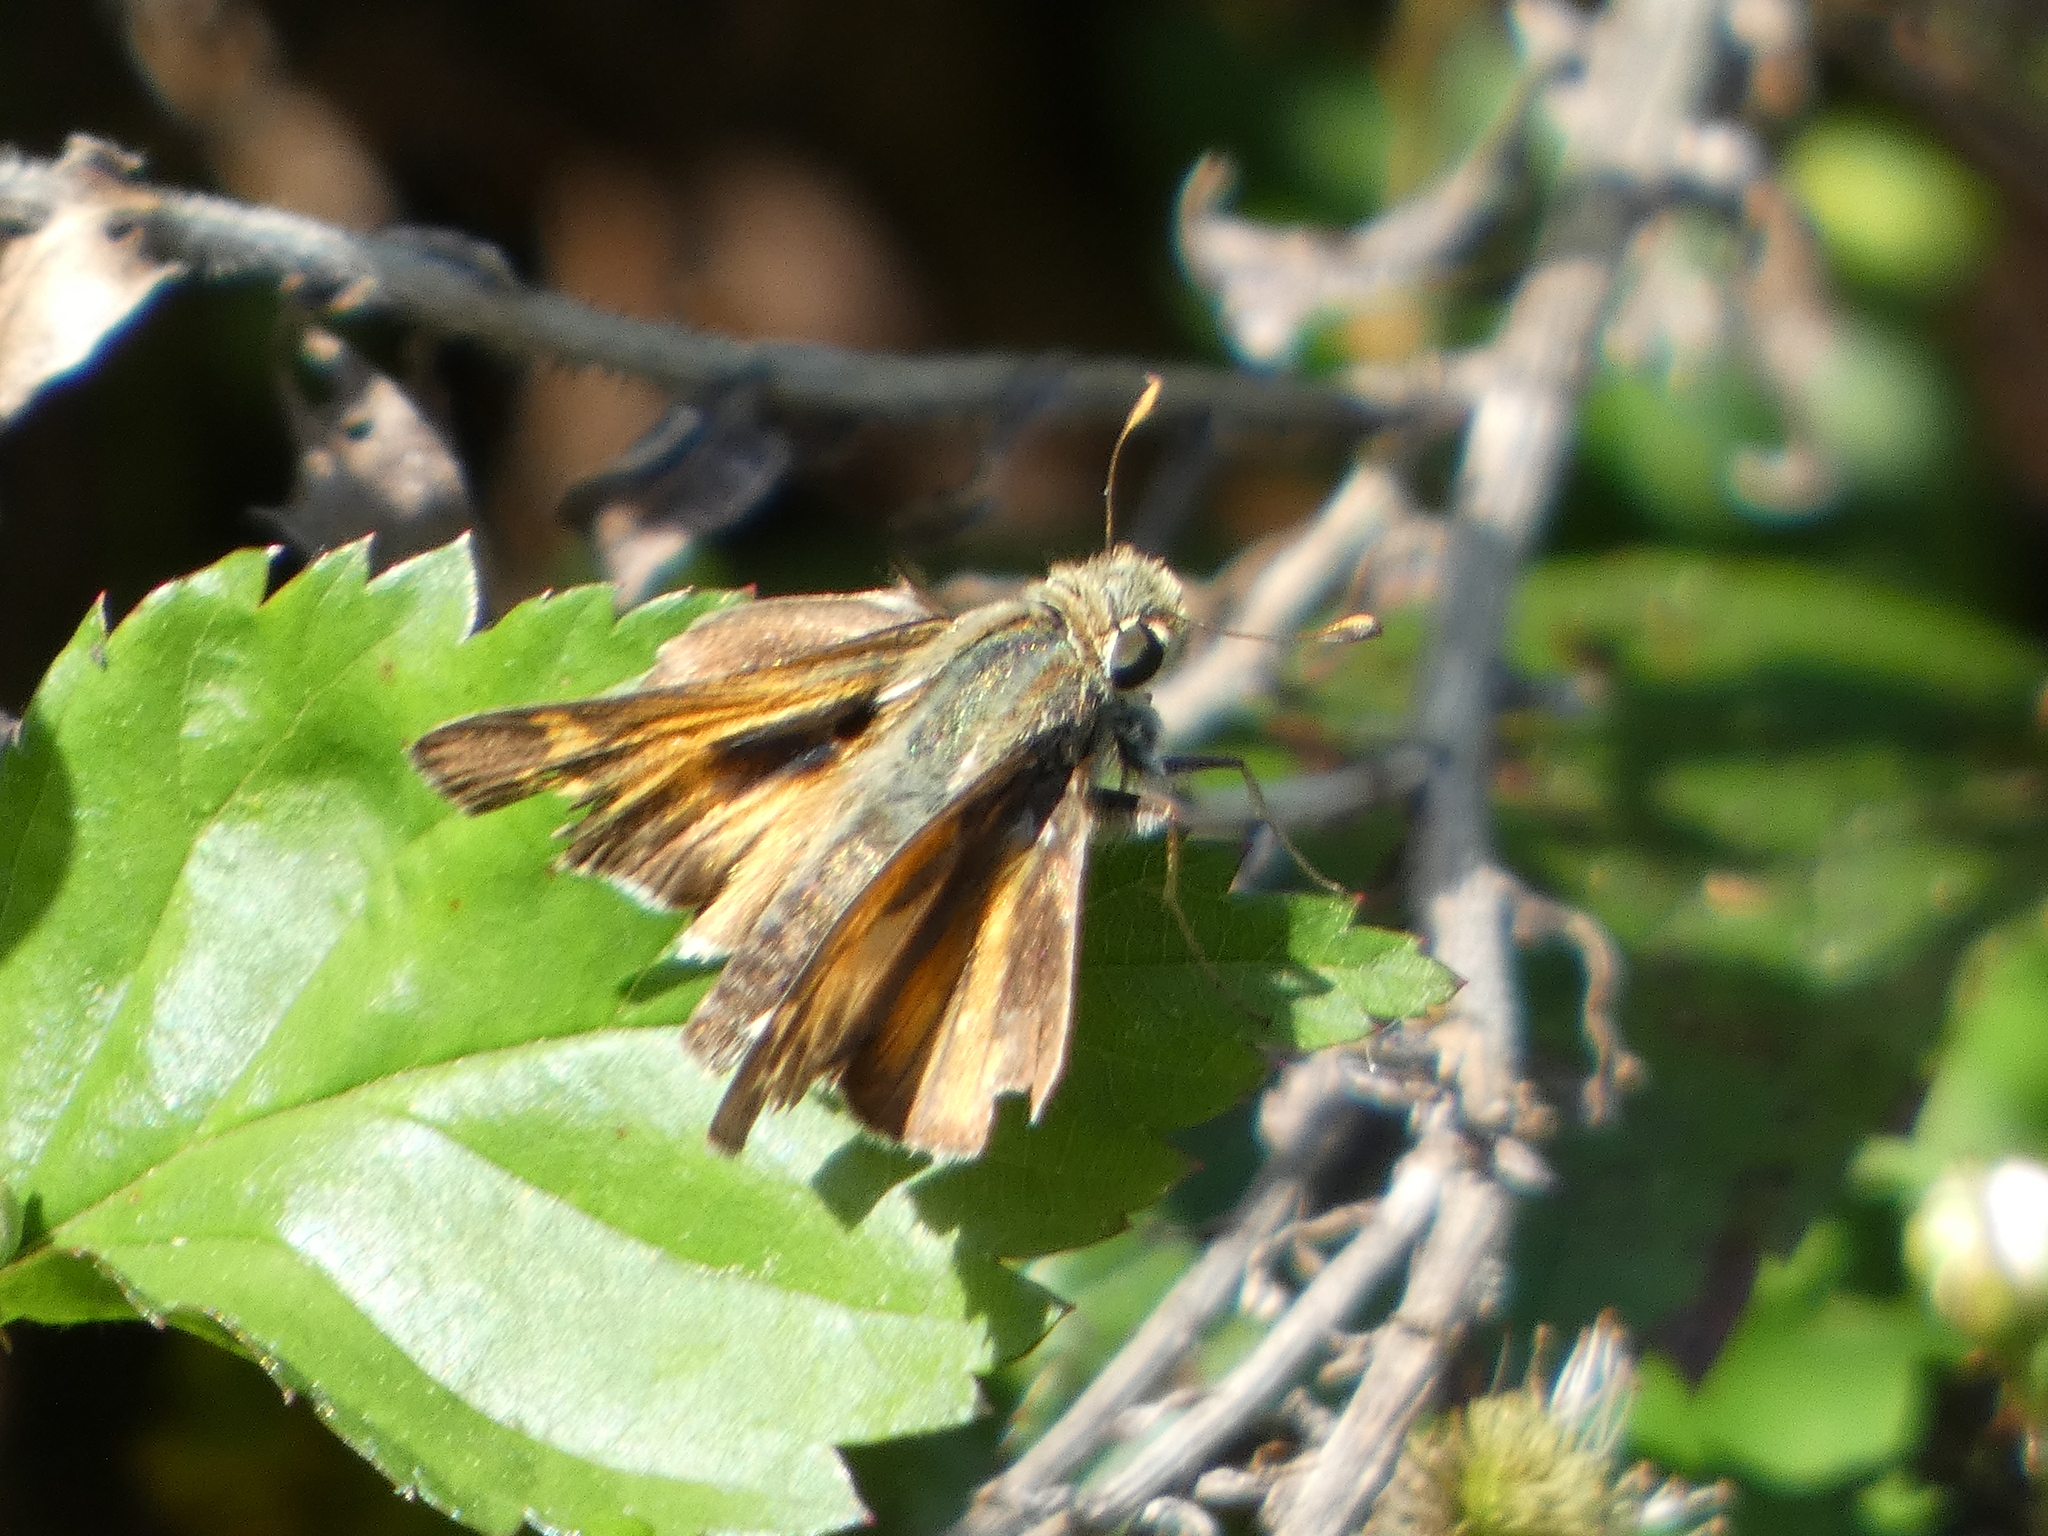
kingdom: Animalia
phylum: Arthropoda
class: Insecta
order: Lepidoptera
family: Hesperiidae
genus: Atalopedes
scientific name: Atalopedes
